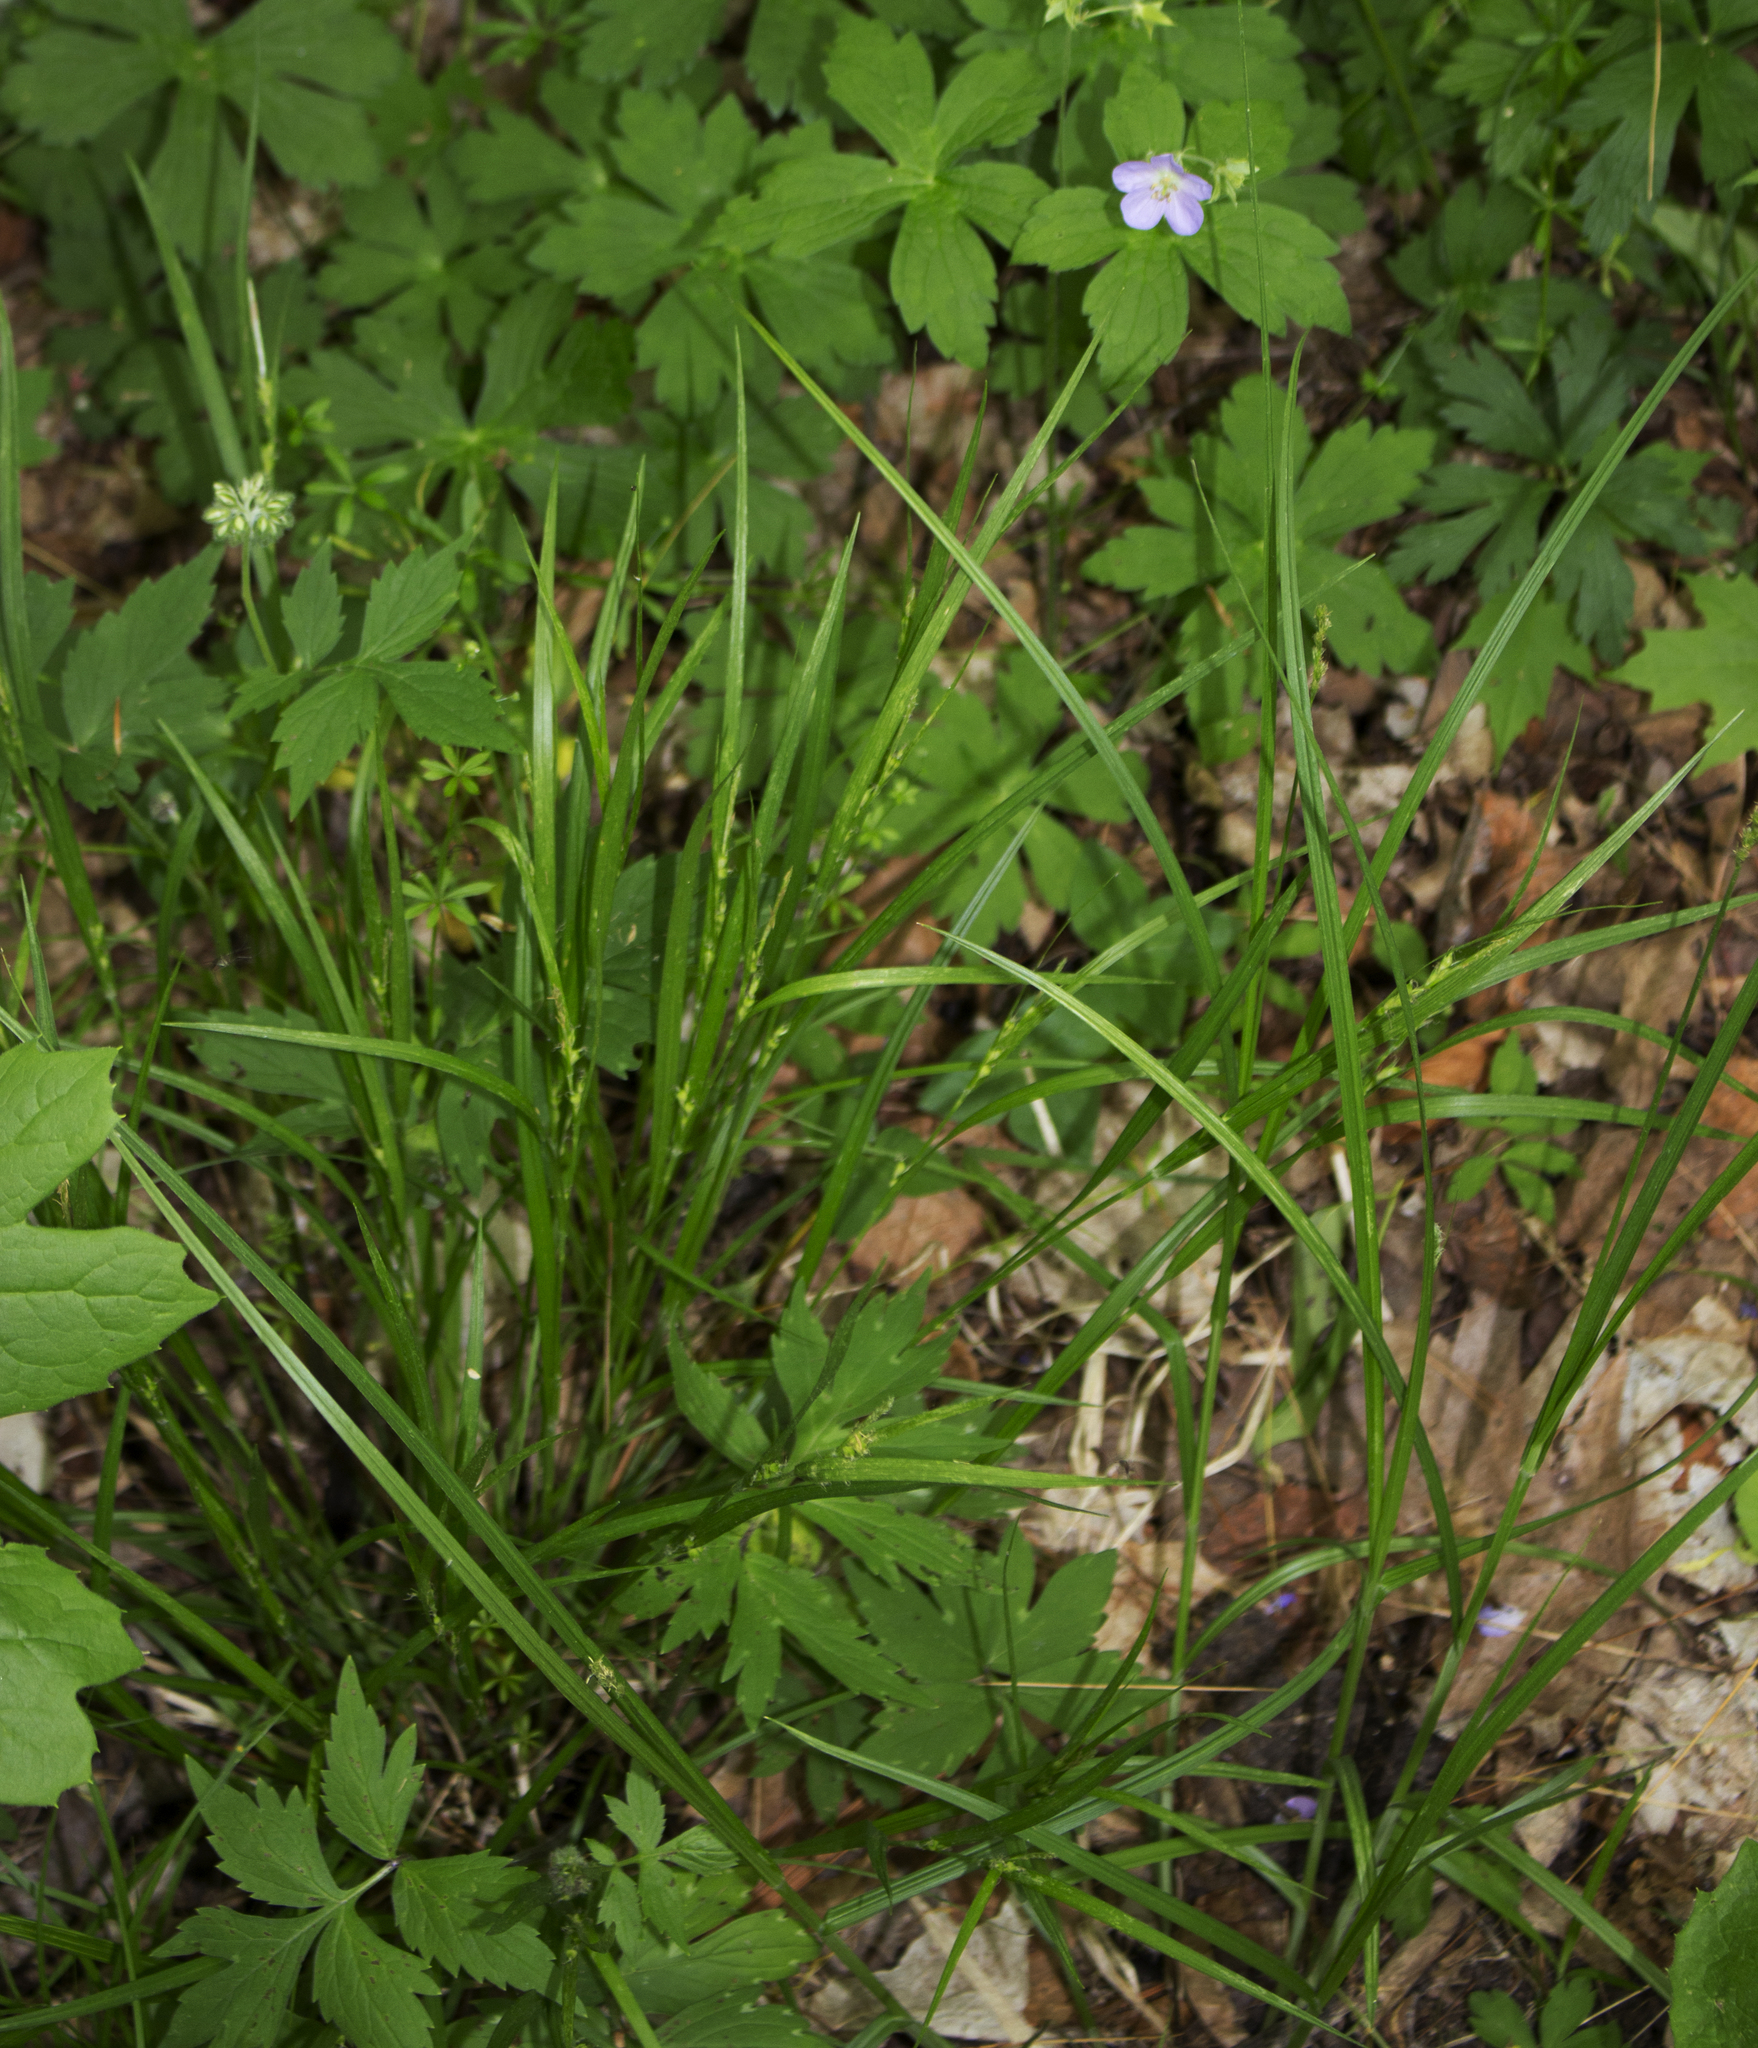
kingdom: Plantae
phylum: Tracheophyta
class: Liliopsida
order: Poales
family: Cyperaceae
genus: Carex
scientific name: Carex hitchcockiana
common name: Hairy grey sedge
